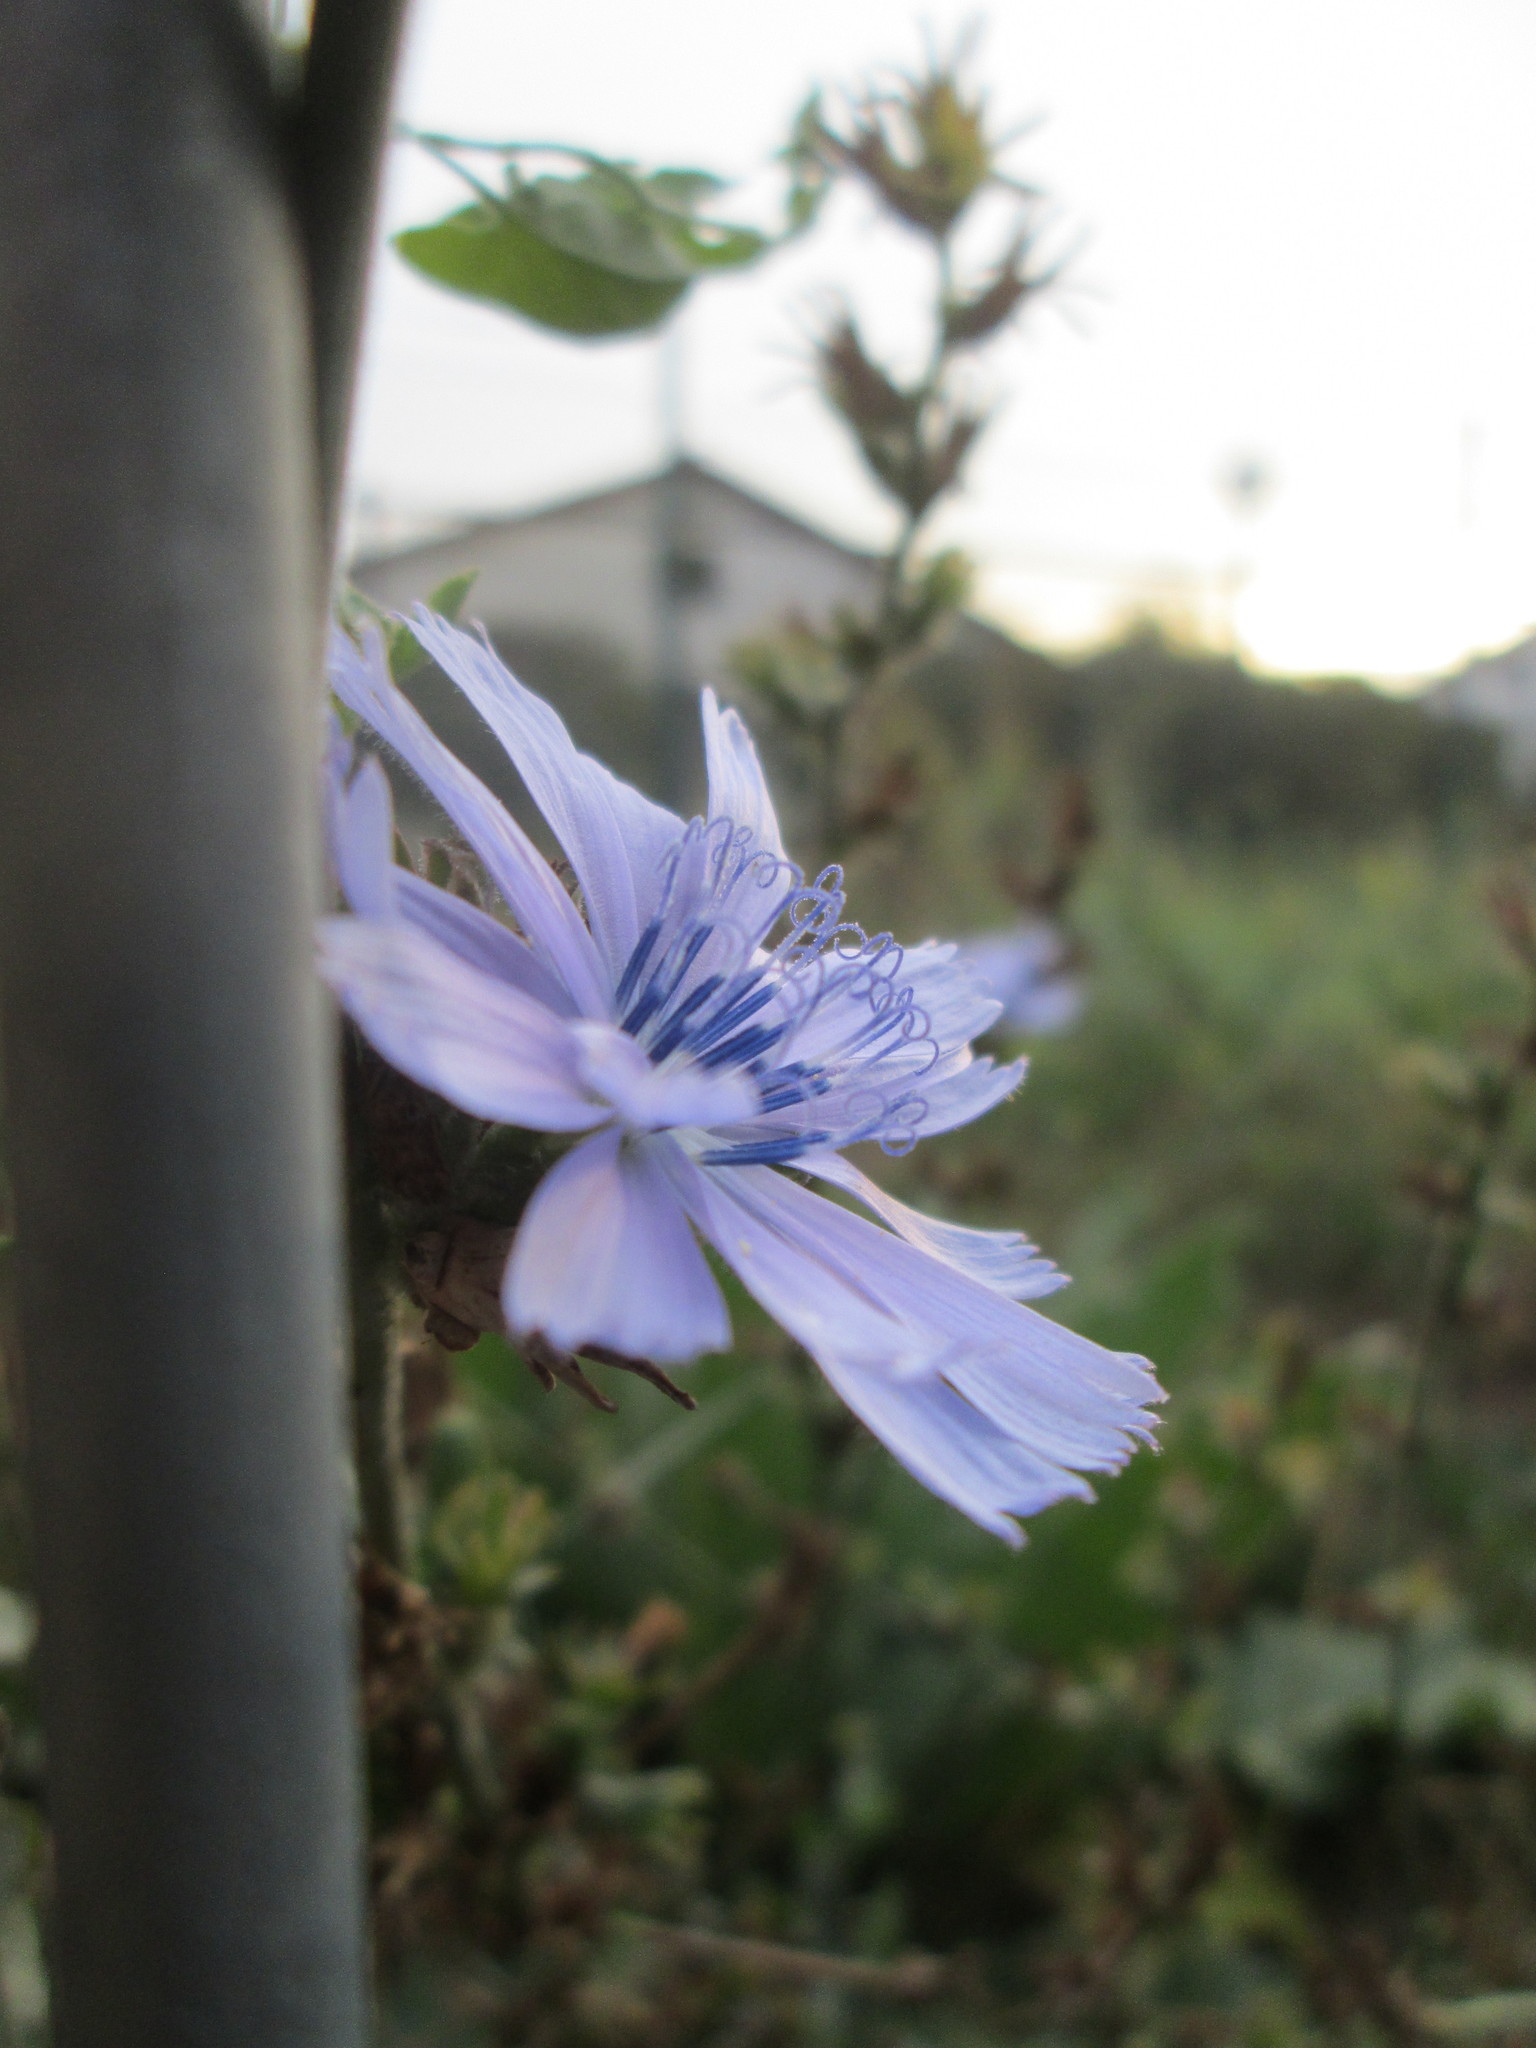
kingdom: Plantae
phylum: Tracheophyta
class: Magnoliopsida
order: Asterales
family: Asteraceae
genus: Cichorium
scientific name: Cichorium intybus
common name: Chicory
